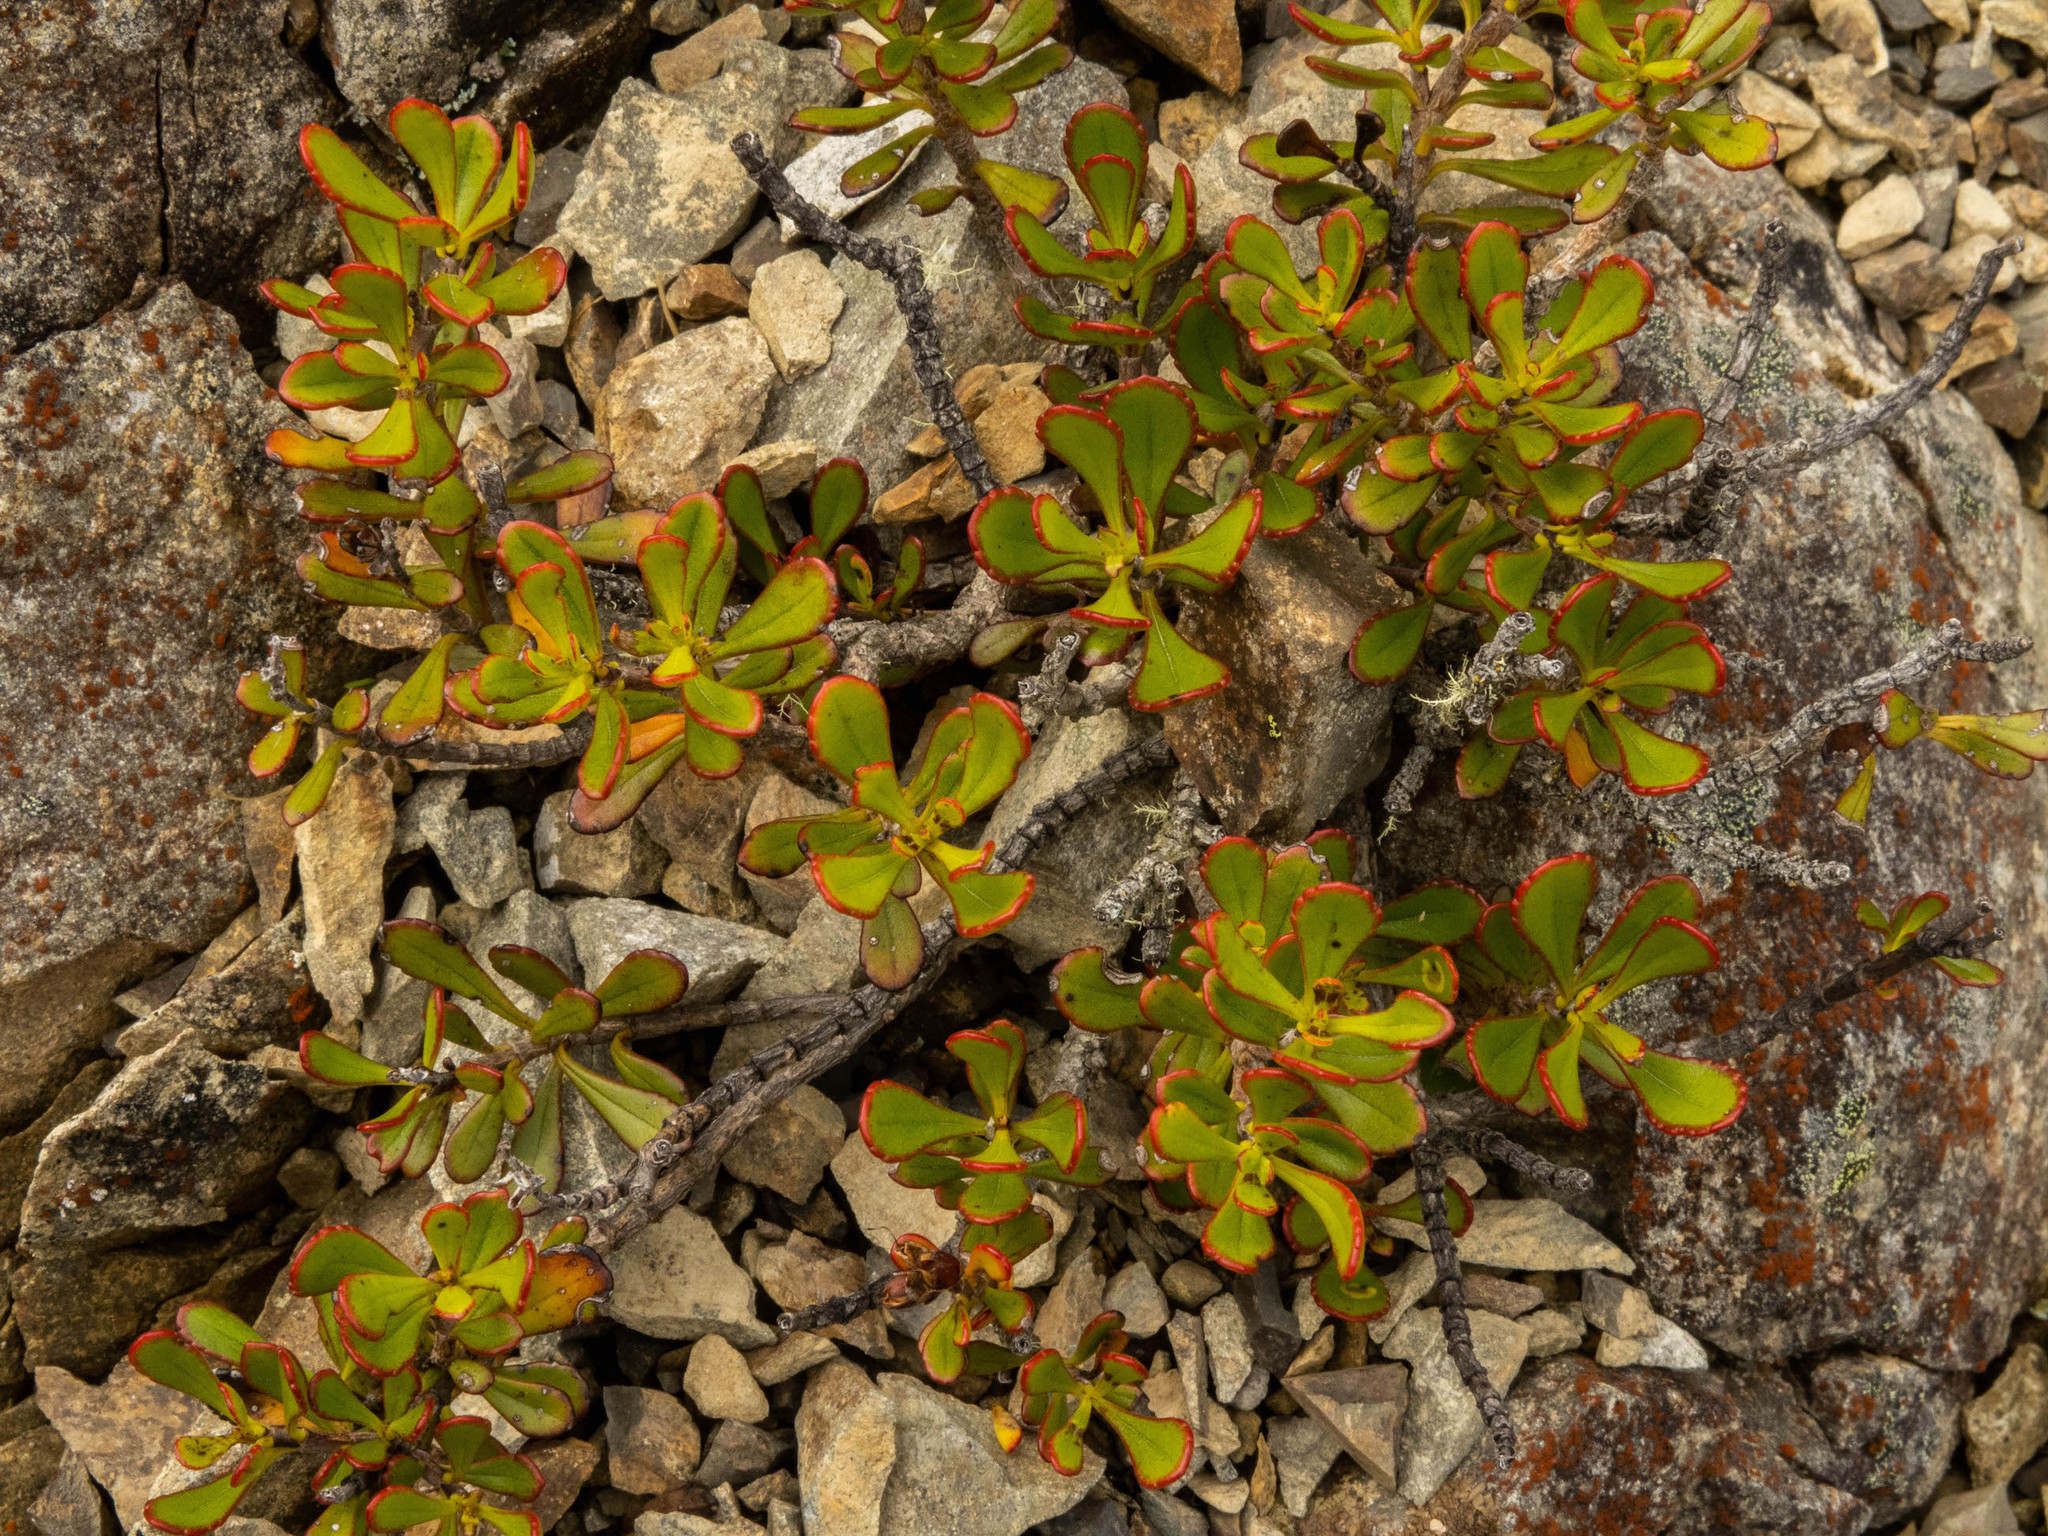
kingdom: Plantae
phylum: Tracheophyta
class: Magnoliopsida
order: Lamiales
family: Plantaginaceae
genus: Veronica
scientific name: Veronica raoulii
